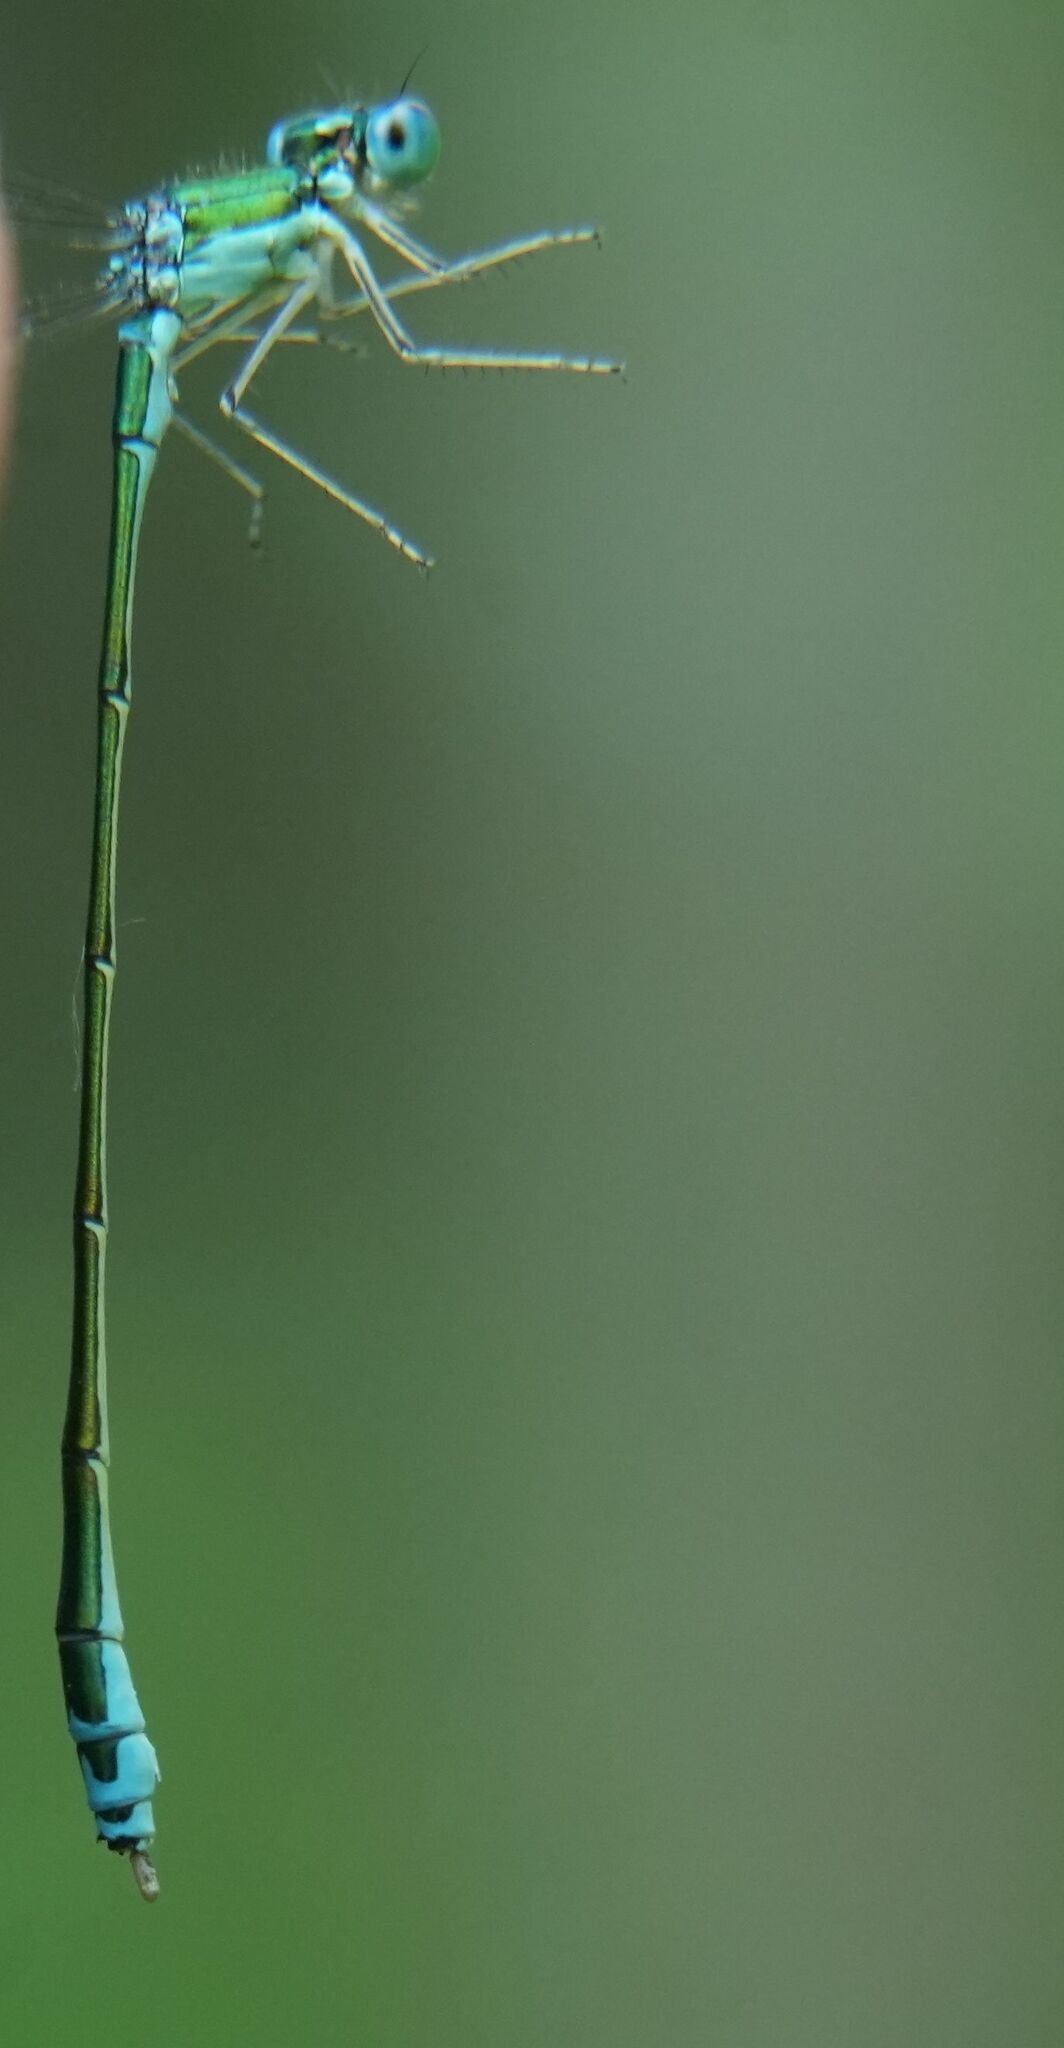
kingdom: Animalia
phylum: Arthropoda
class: Insecta
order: Odonata
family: Coenagrionidae
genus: Nehalennia
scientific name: Nehalennia irene
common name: Sedge sprite
